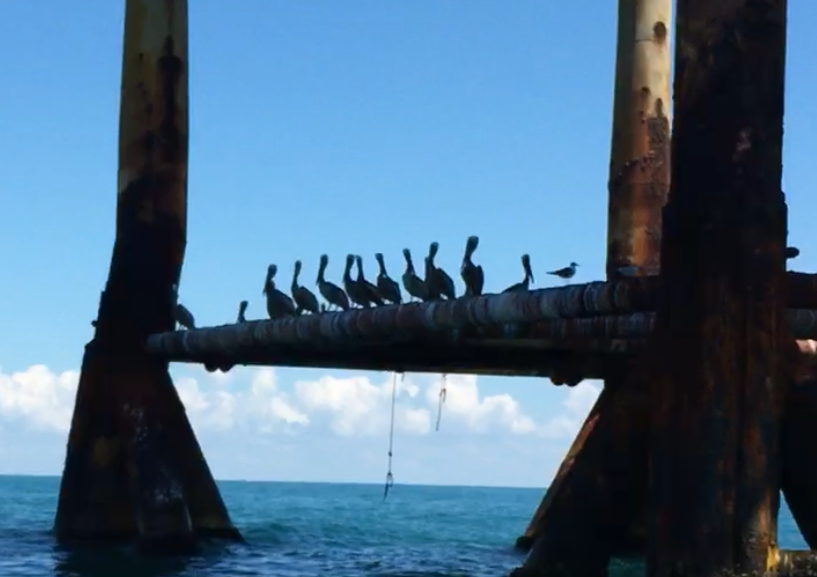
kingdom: Animalia
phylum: Chordata
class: Aves
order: Pelecaniformes
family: Pelecanidae
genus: Pelecanus
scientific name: Pelecanus occidentalis
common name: Brown pelican
